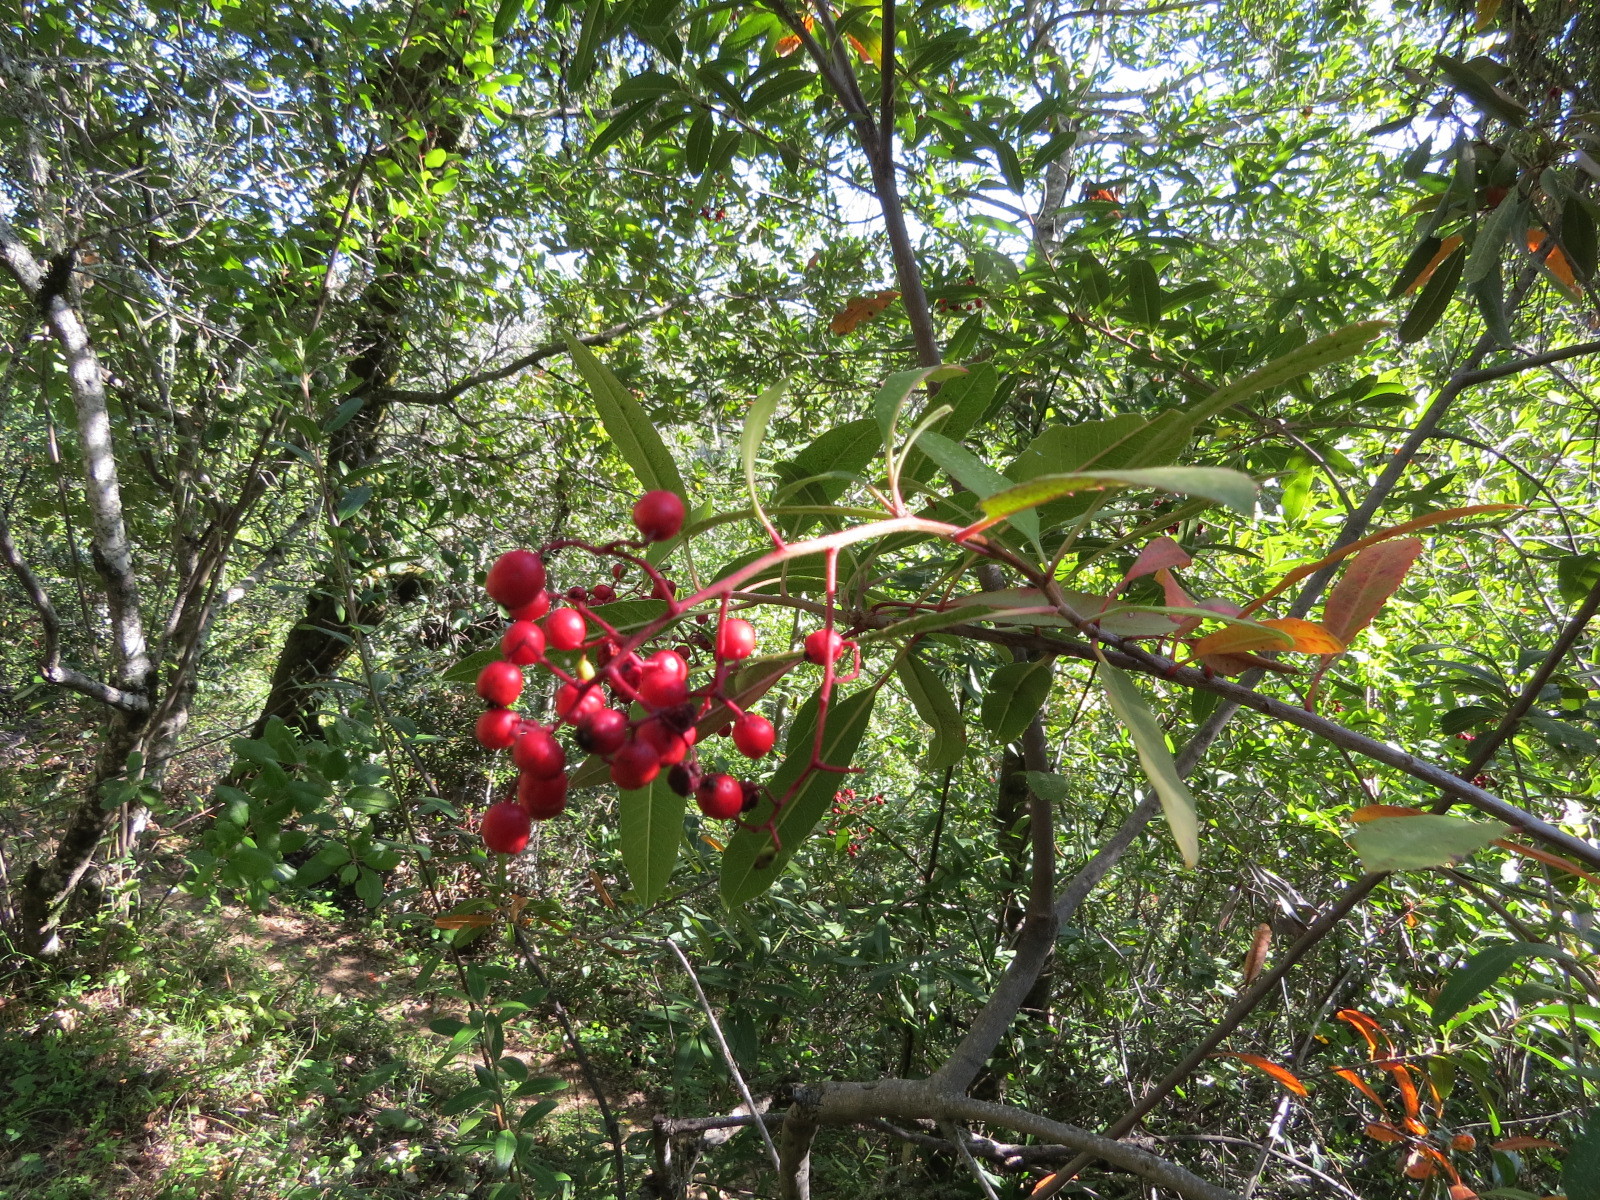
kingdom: Plantae
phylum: Tracheophyta
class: Magnoliopsida
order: Rosales
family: Rosaceae
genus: Heteromeles
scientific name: Heteromeles arbutifolia
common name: California-holly
